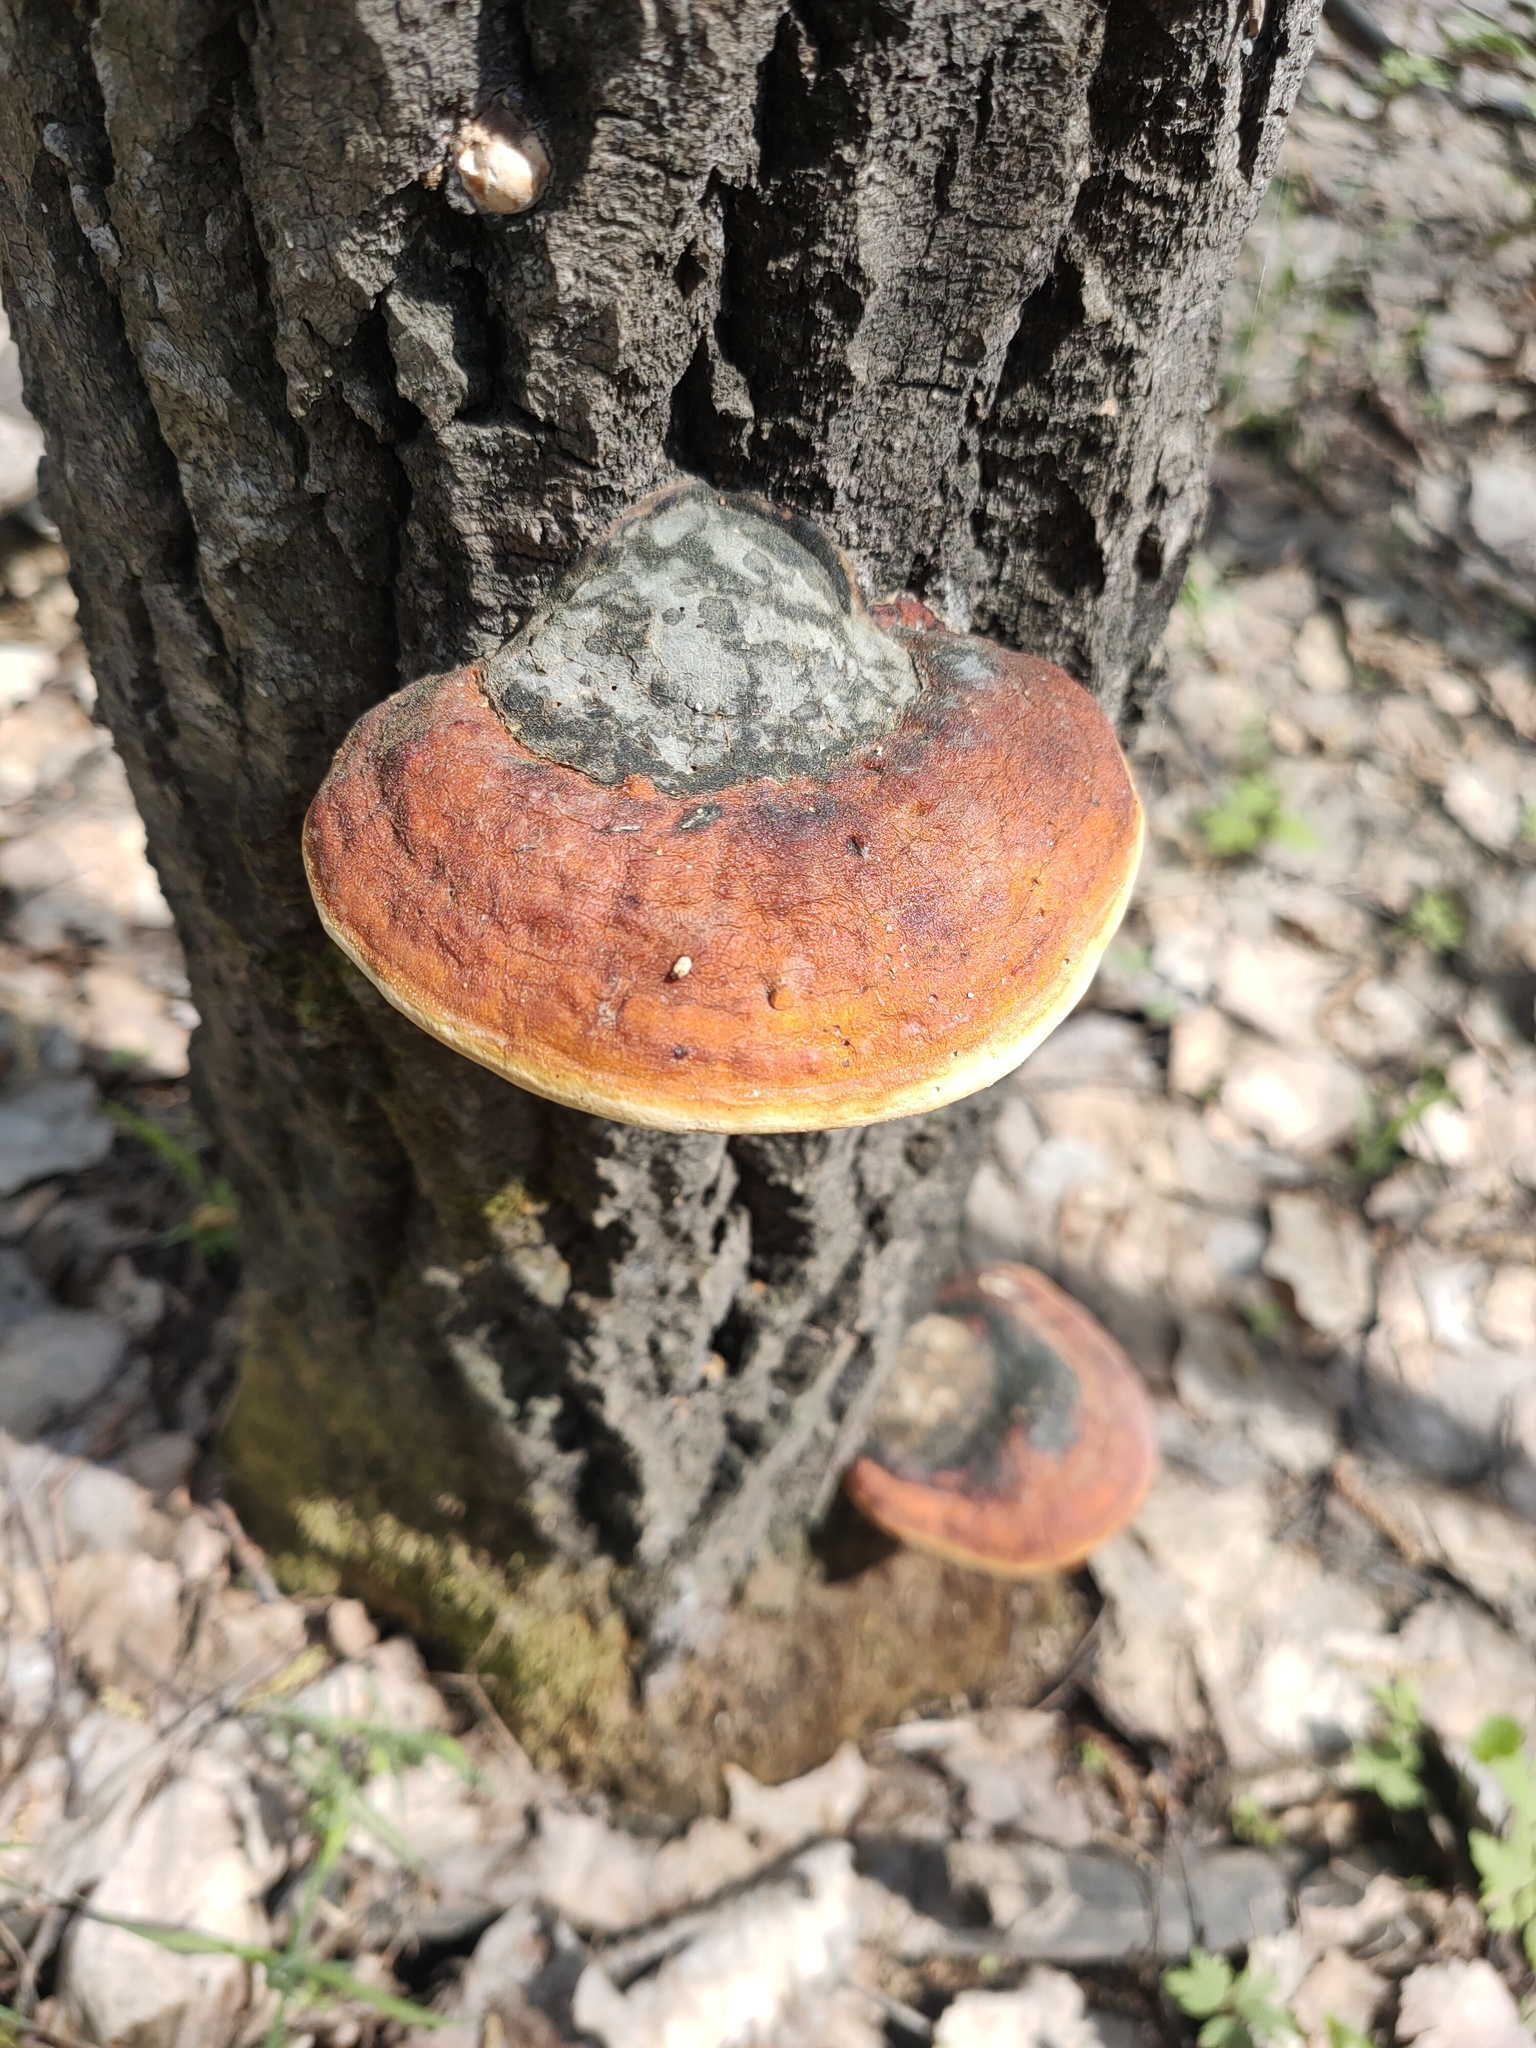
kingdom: Fungi
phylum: Basidiomycota
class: Agaricomycetes
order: Polyporales
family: Fomitopsidaceae
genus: Fomitopsis
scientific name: Fomitopsis pinicola
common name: Red-belted bracket
